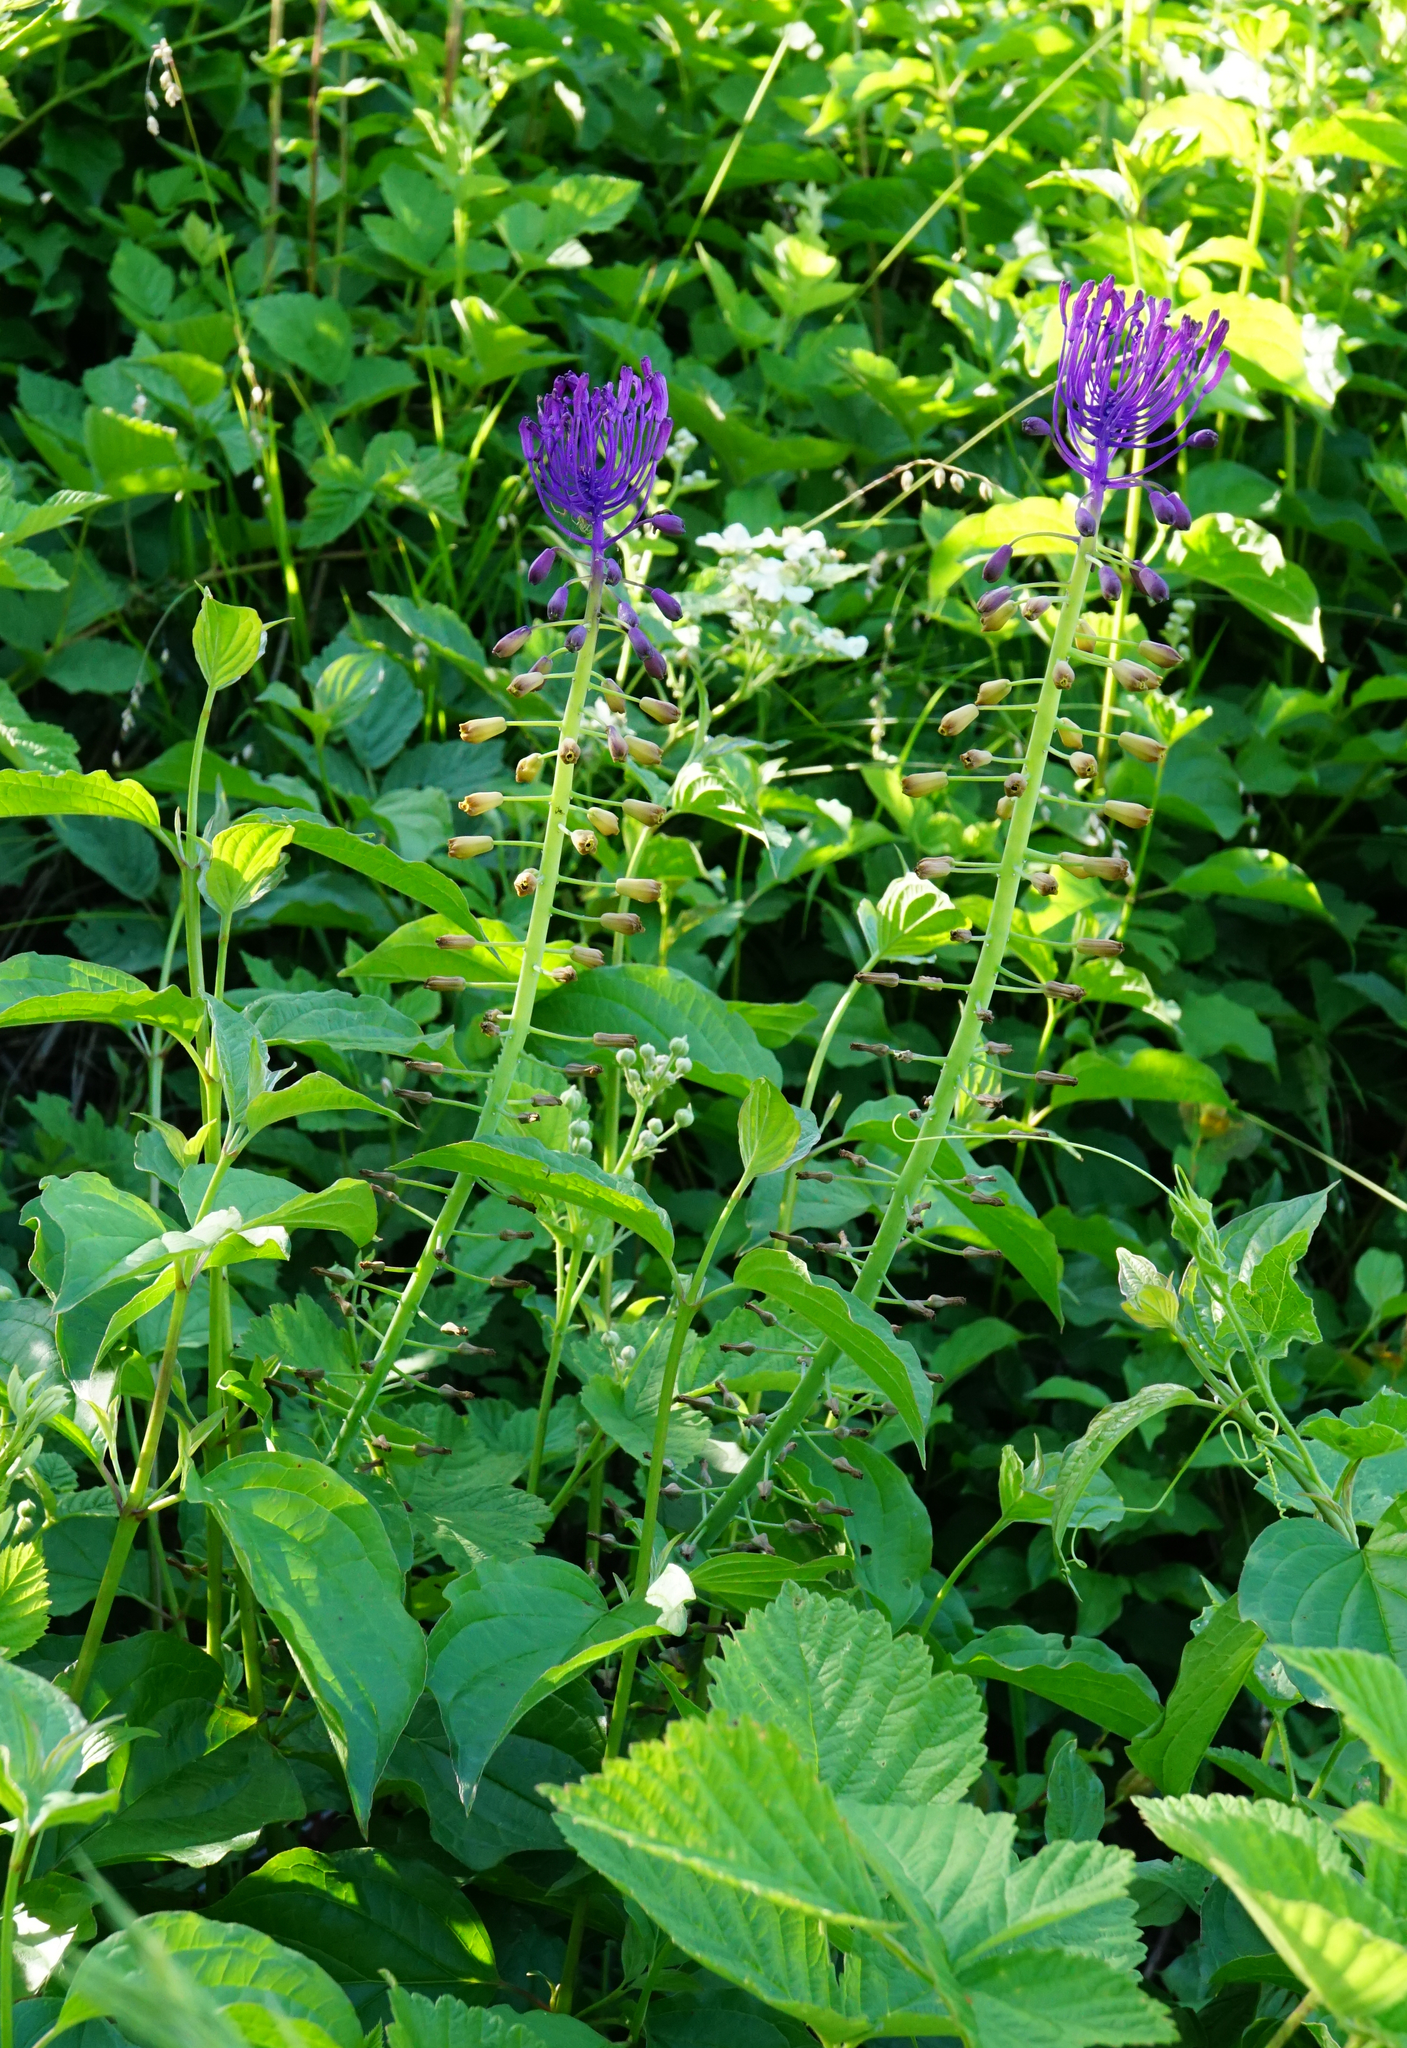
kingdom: Plantae
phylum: Tracheophyta
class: Liliopsida
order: Asparagales
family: Asparagaceae
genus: Muscari
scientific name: Muscari comosum
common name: Tassel hyacinth
